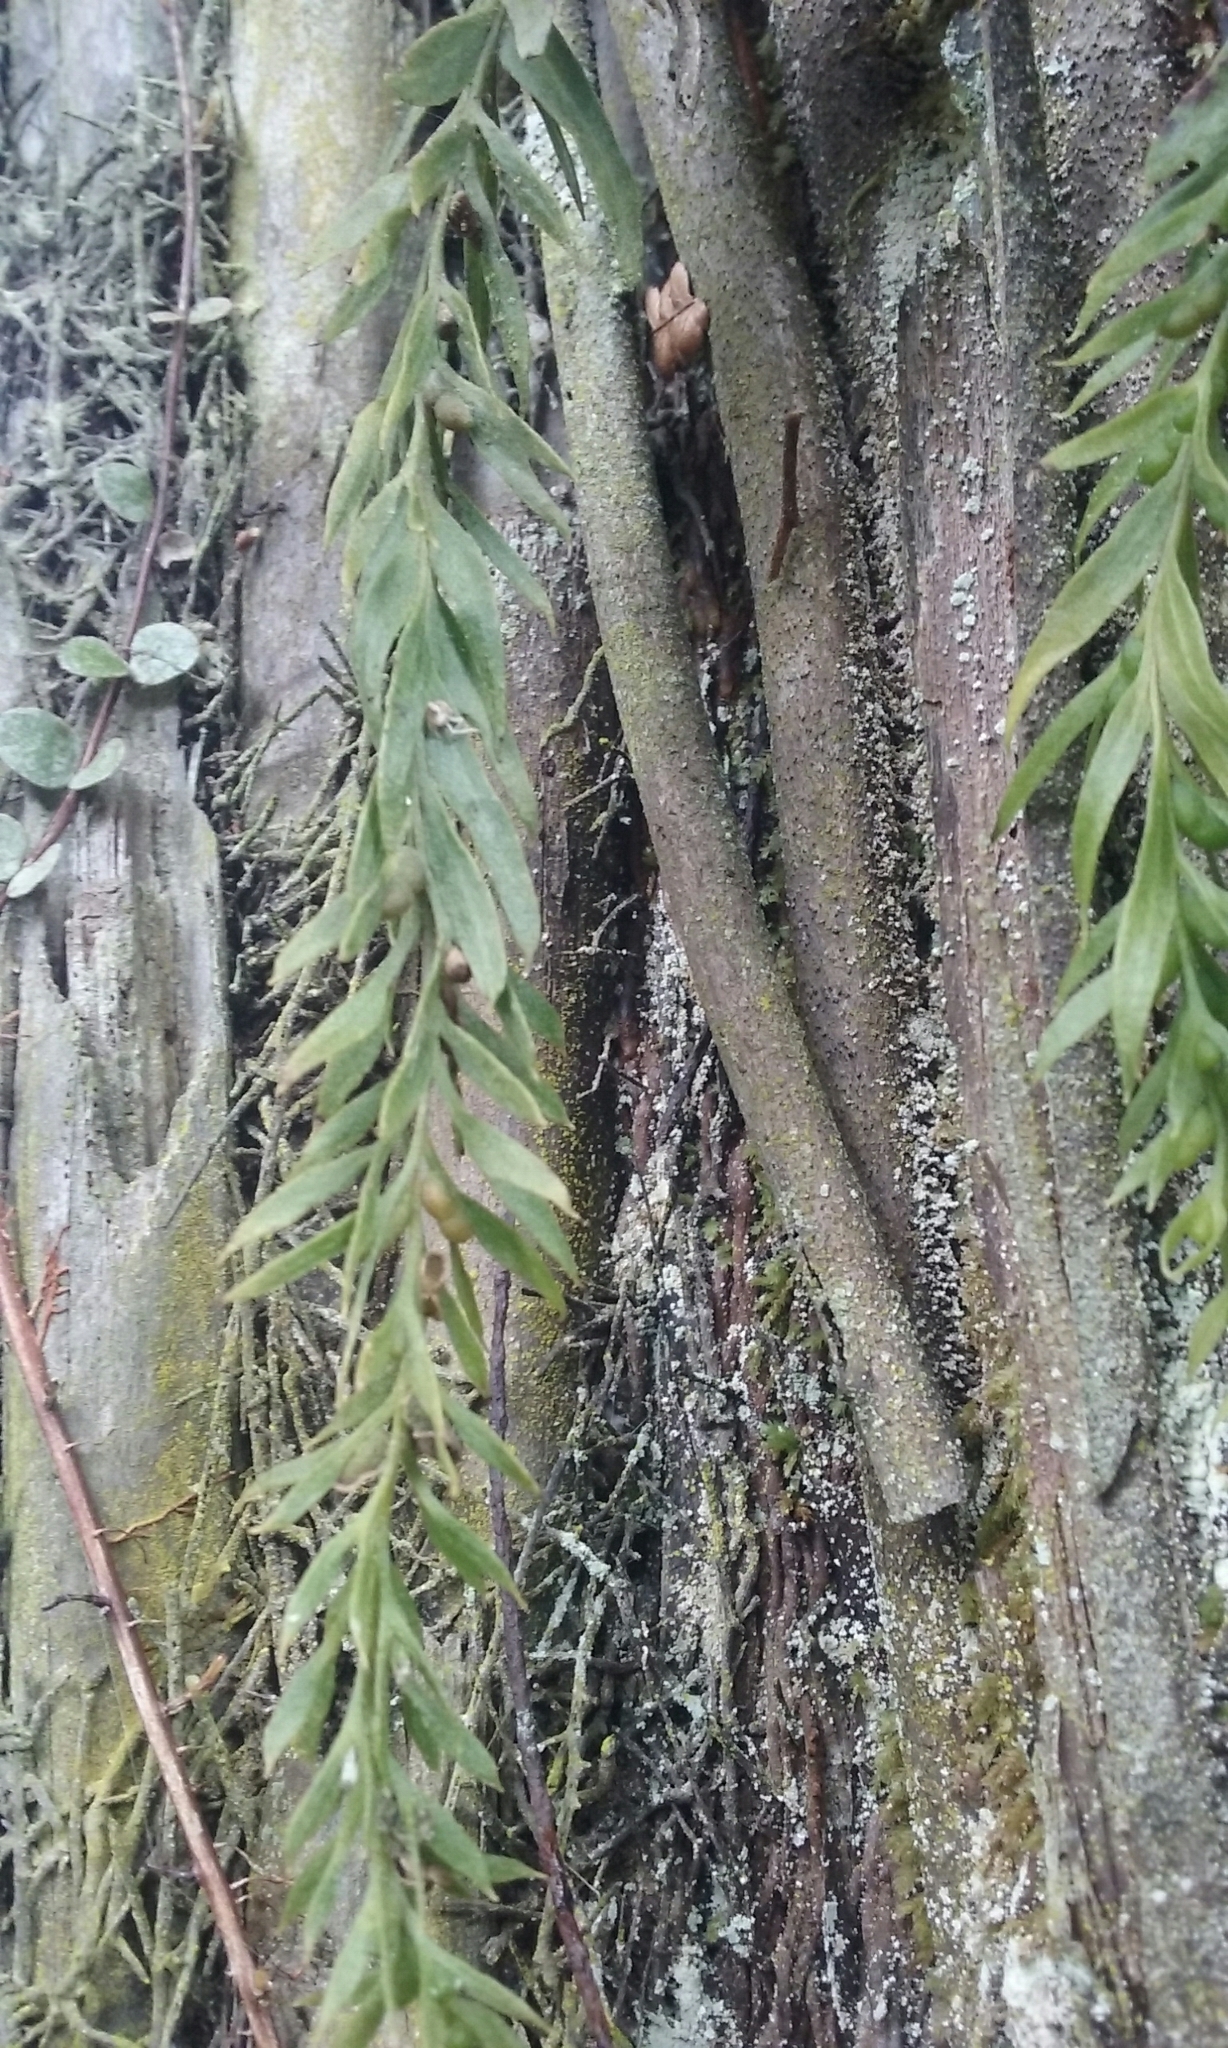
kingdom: Plantae
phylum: Tracheophyta
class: Polypodiopsida
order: Psilotales
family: Psilotaceae
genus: Tmesipteris
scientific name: Tmesipteris elongata
